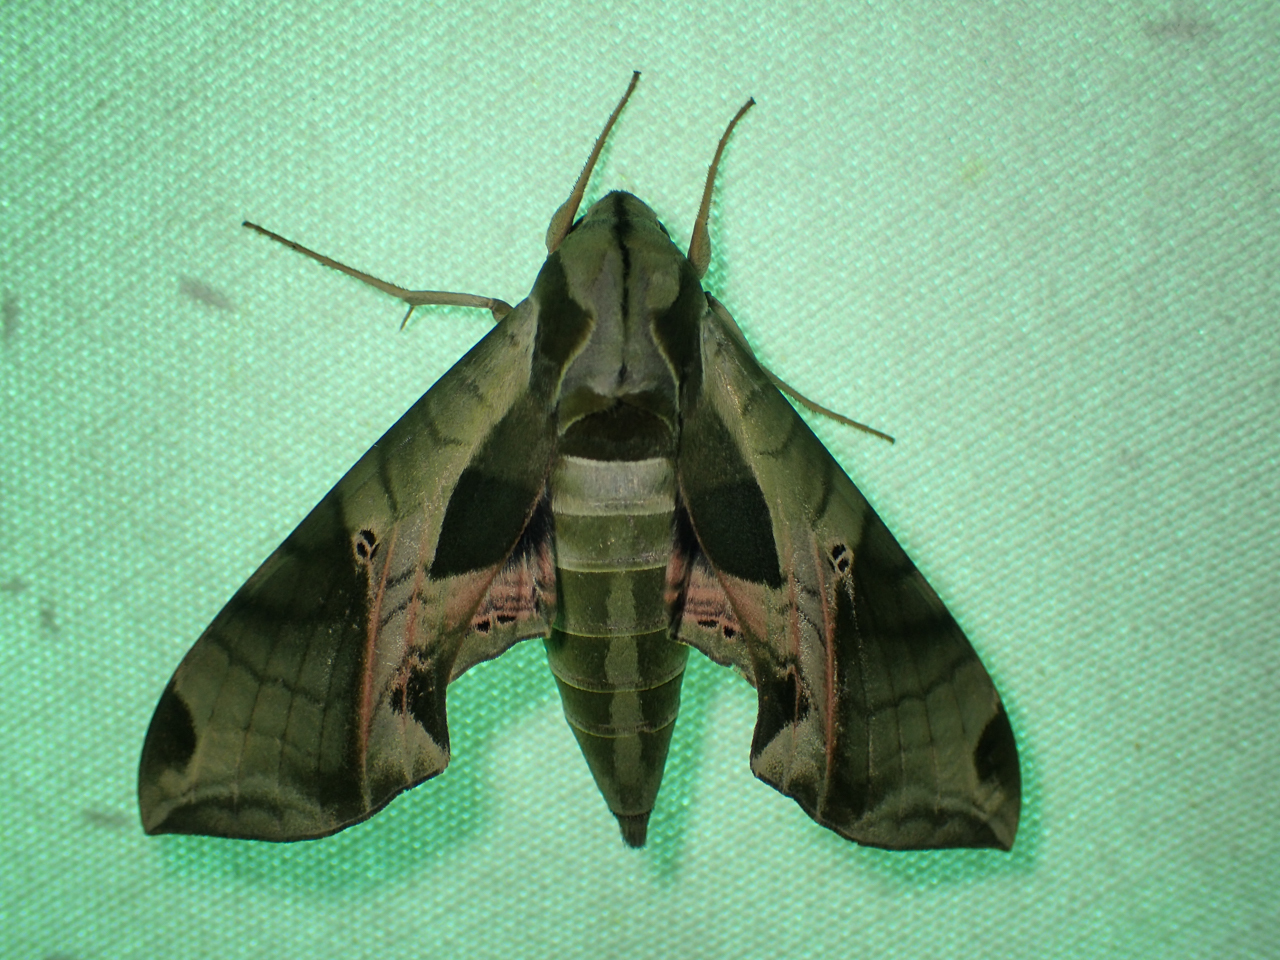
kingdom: Animalia
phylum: Arthropoda
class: Insecta
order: Lepidoptera
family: Sphingidae
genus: Eumorpha
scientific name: Eumorpha pandorus
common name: Pandora sphinx
